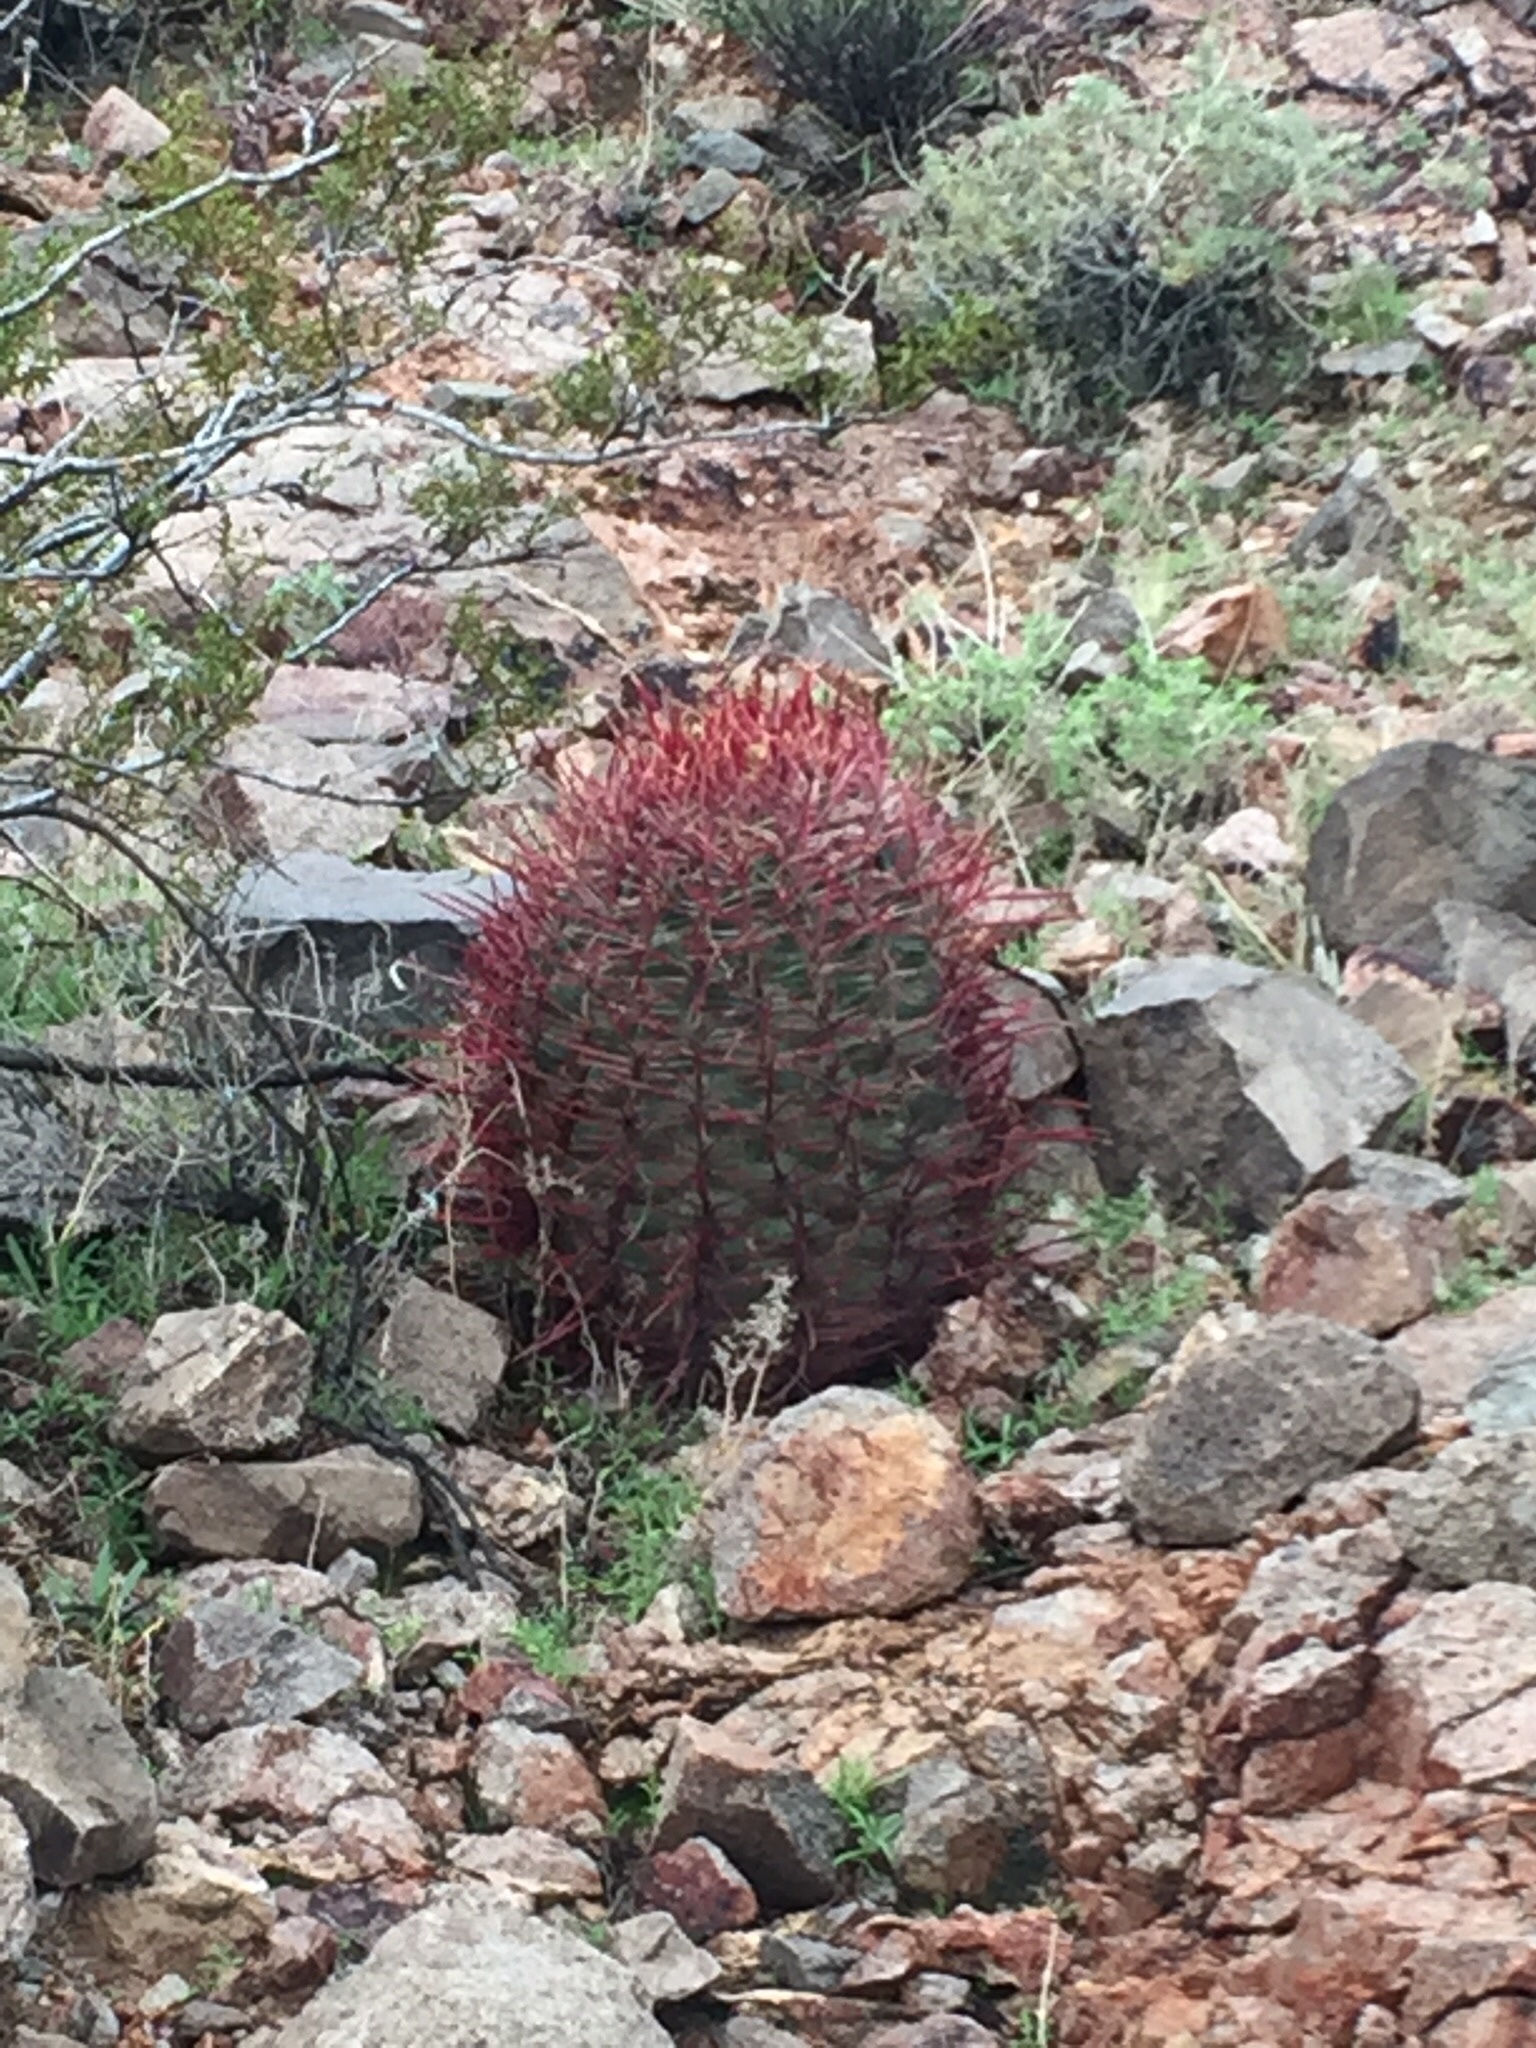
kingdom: Plantae
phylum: Tracheophyta
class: Magnoliopsida
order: Caryophyllales
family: Cactaceae
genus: Ferocactus
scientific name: Ferocactus cylindraceus
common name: California barrel cactus
